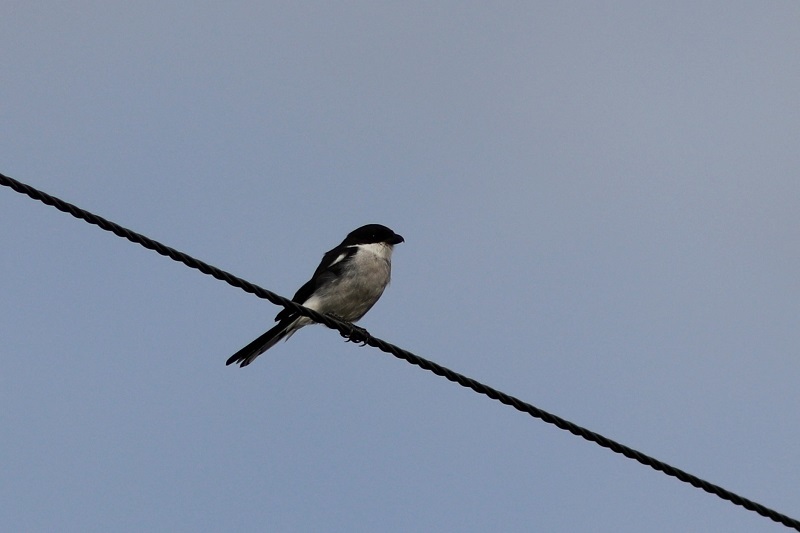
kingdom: Animalia
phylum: Chordata
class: Aves
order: Passeriformes
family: Laniidae
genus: Lanius
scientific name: Lanius collaris
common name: Southern fiscal
